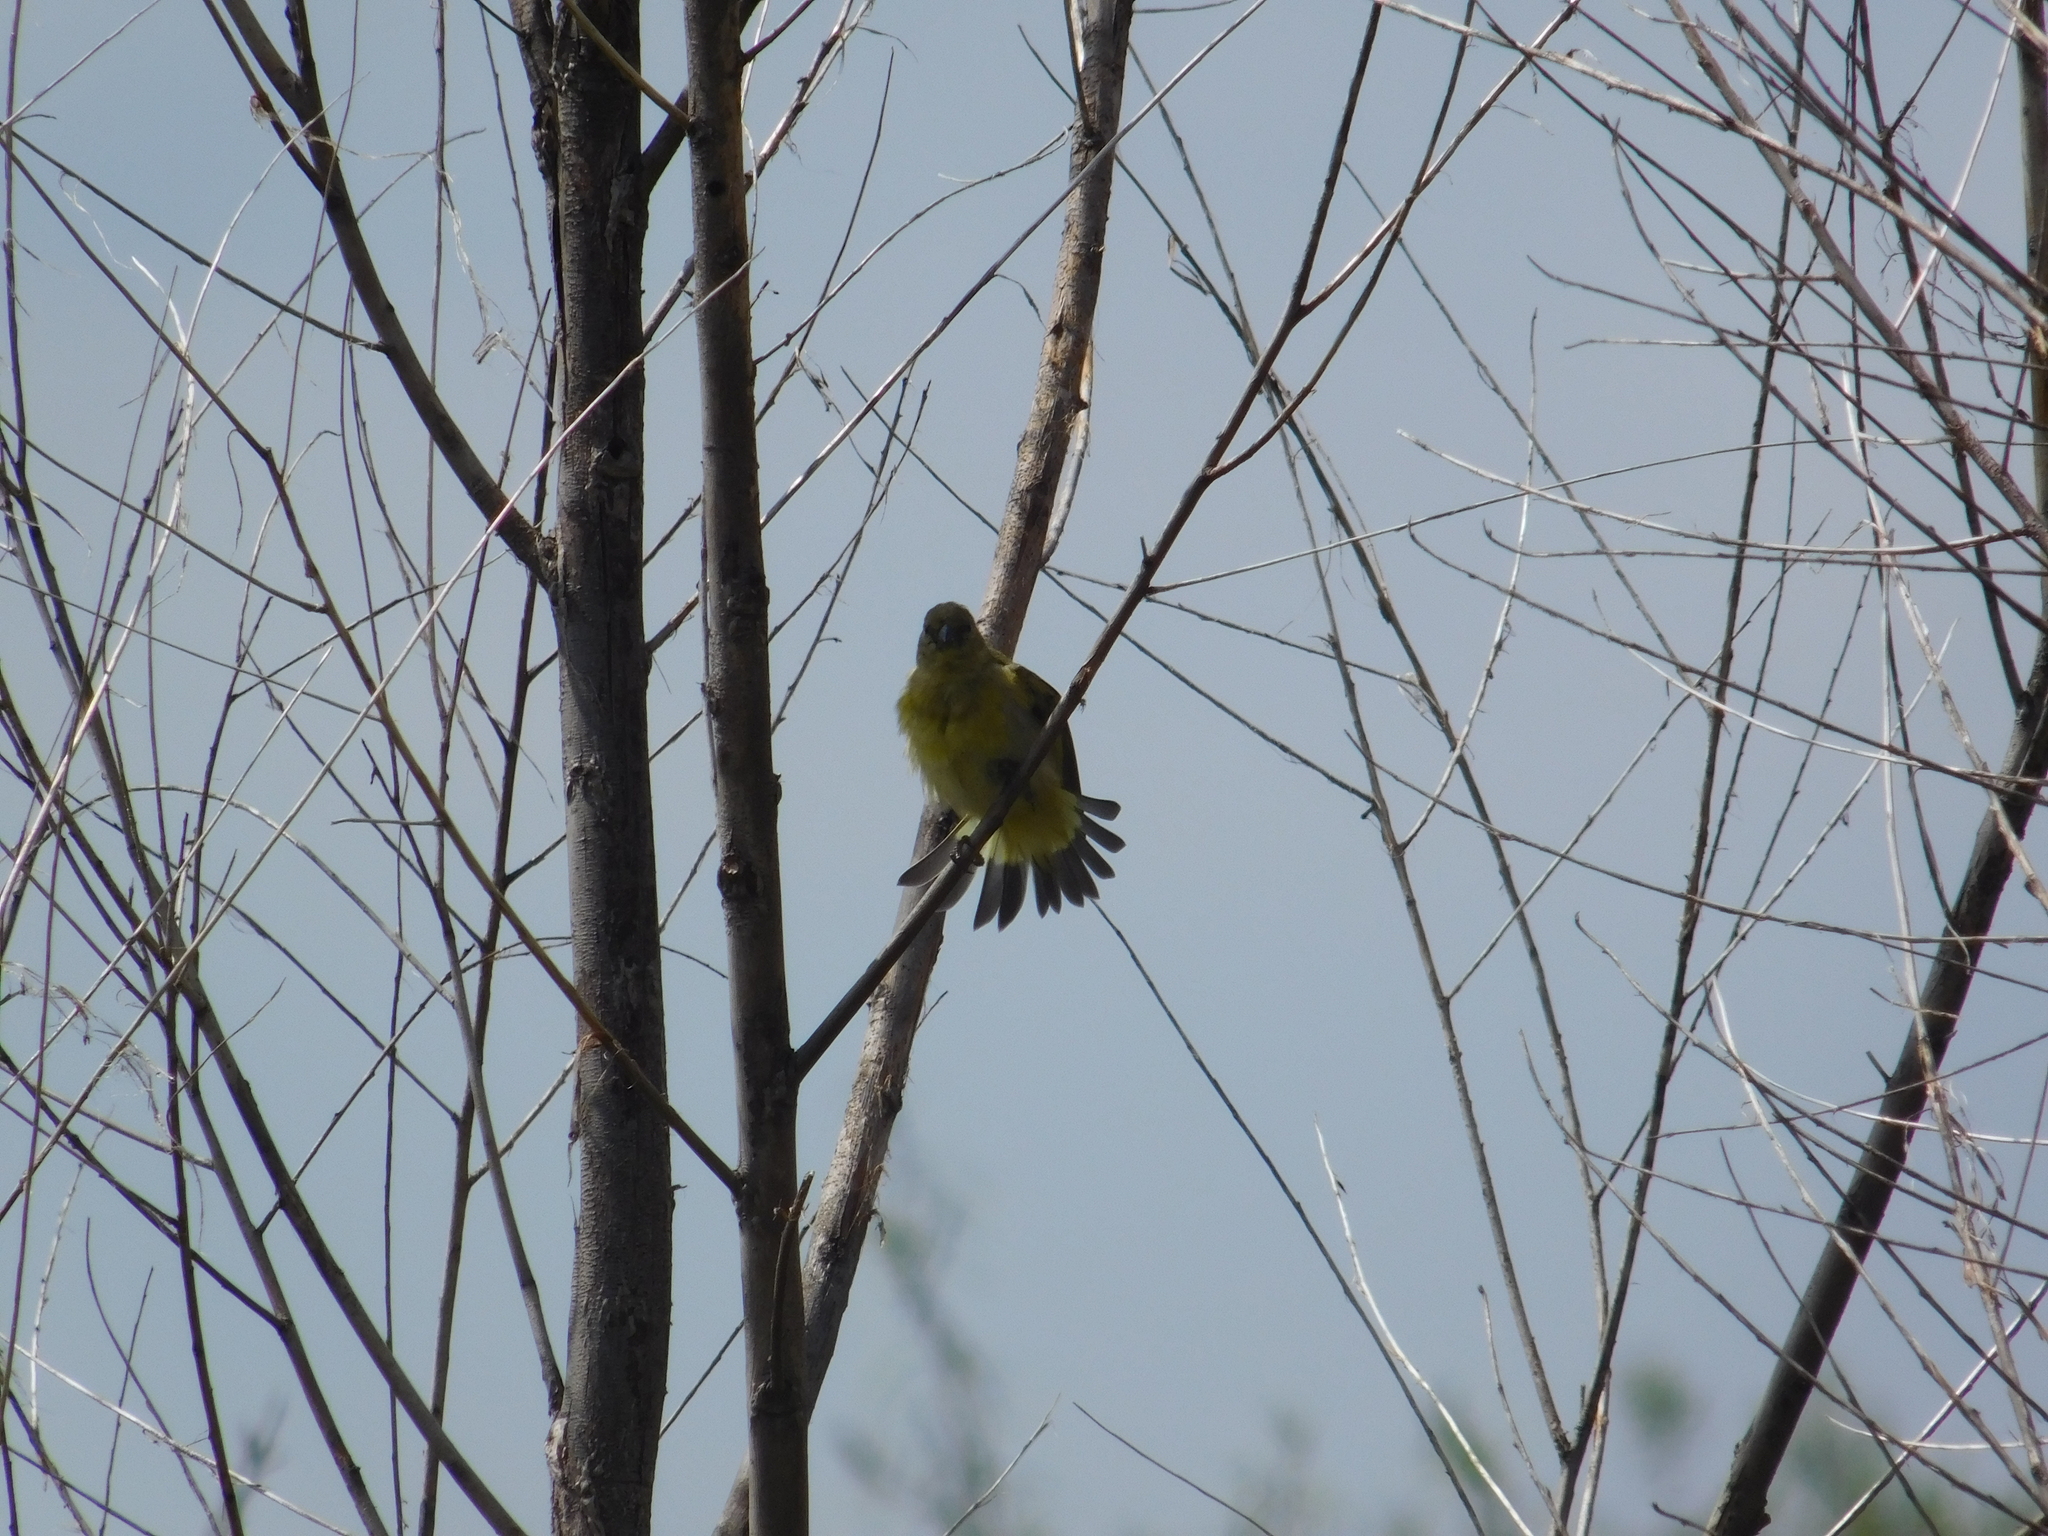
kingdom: Animalia
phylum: Chordata
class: Aves
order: Passeriformes
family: Fringillidae
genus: Spinus
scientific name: Spinus magellanicus
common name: Hooded siskin
